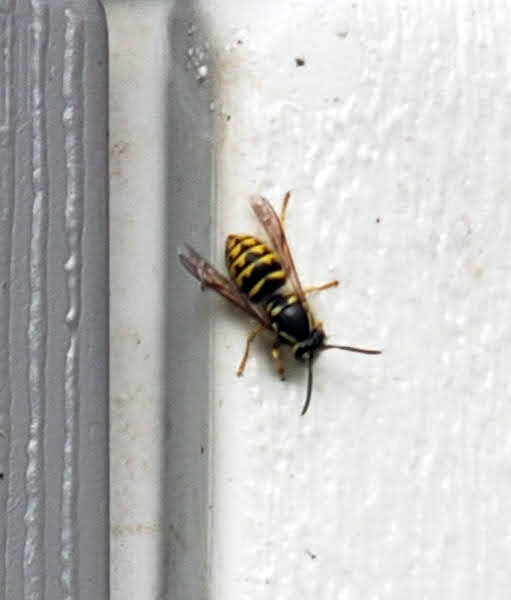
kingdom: Animalia
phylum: Arthropoda
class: Insecta
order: Hymenoptera
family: Vespidae
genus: Dolichovespula
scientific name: Dolichovespula arenaria
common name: Aerial yellowjacket
